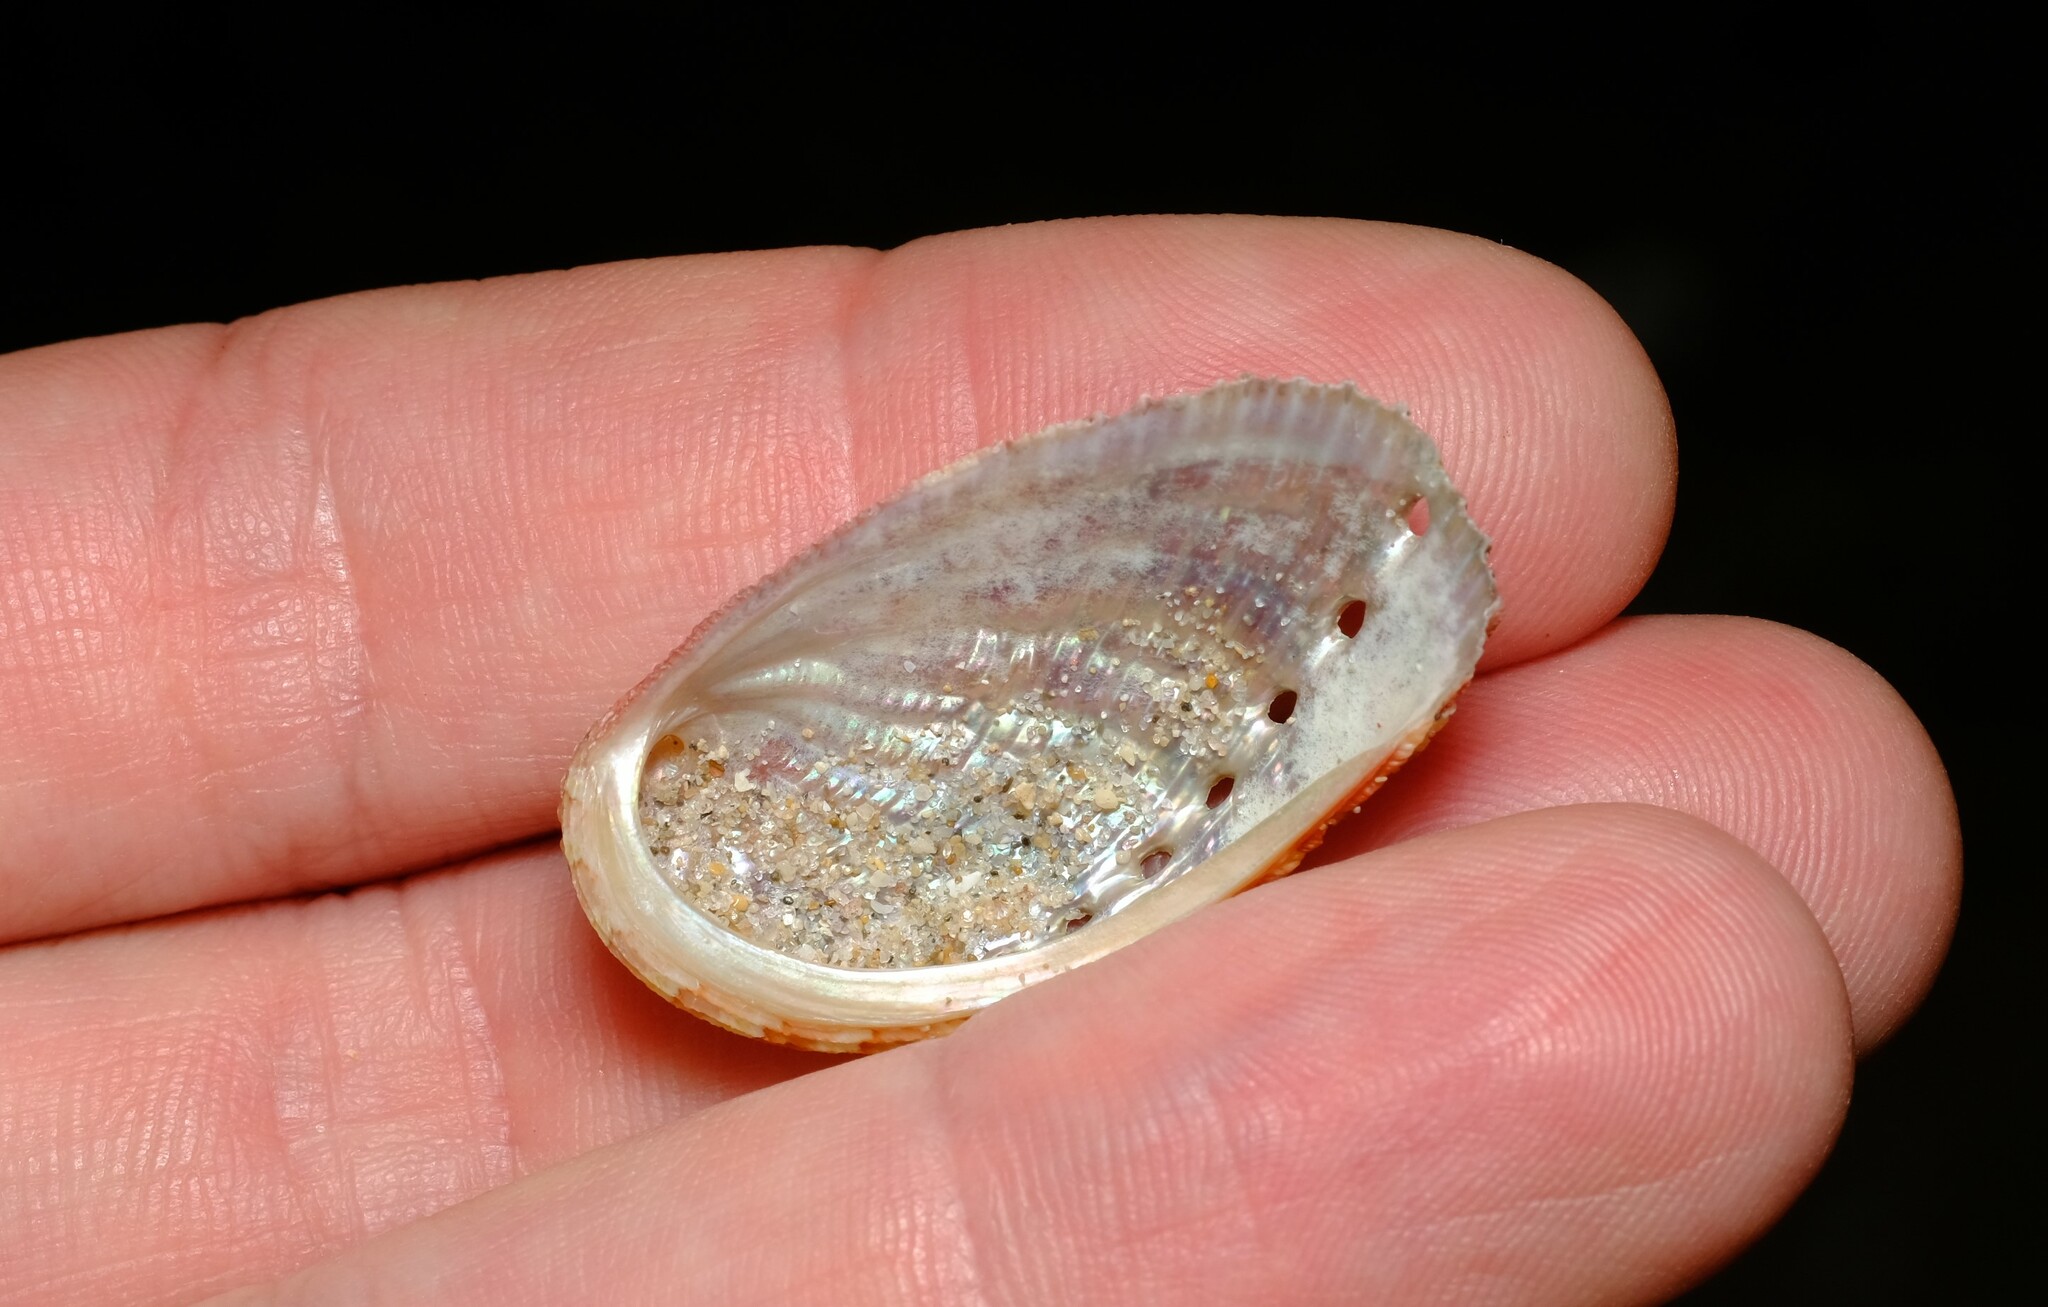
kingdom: Animalia
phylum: Mollusca
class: Gastropoda
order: Lepetellida
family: Haliotidae
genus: Haliotis
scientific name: Haliotis elegans
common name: Elegant abalone
